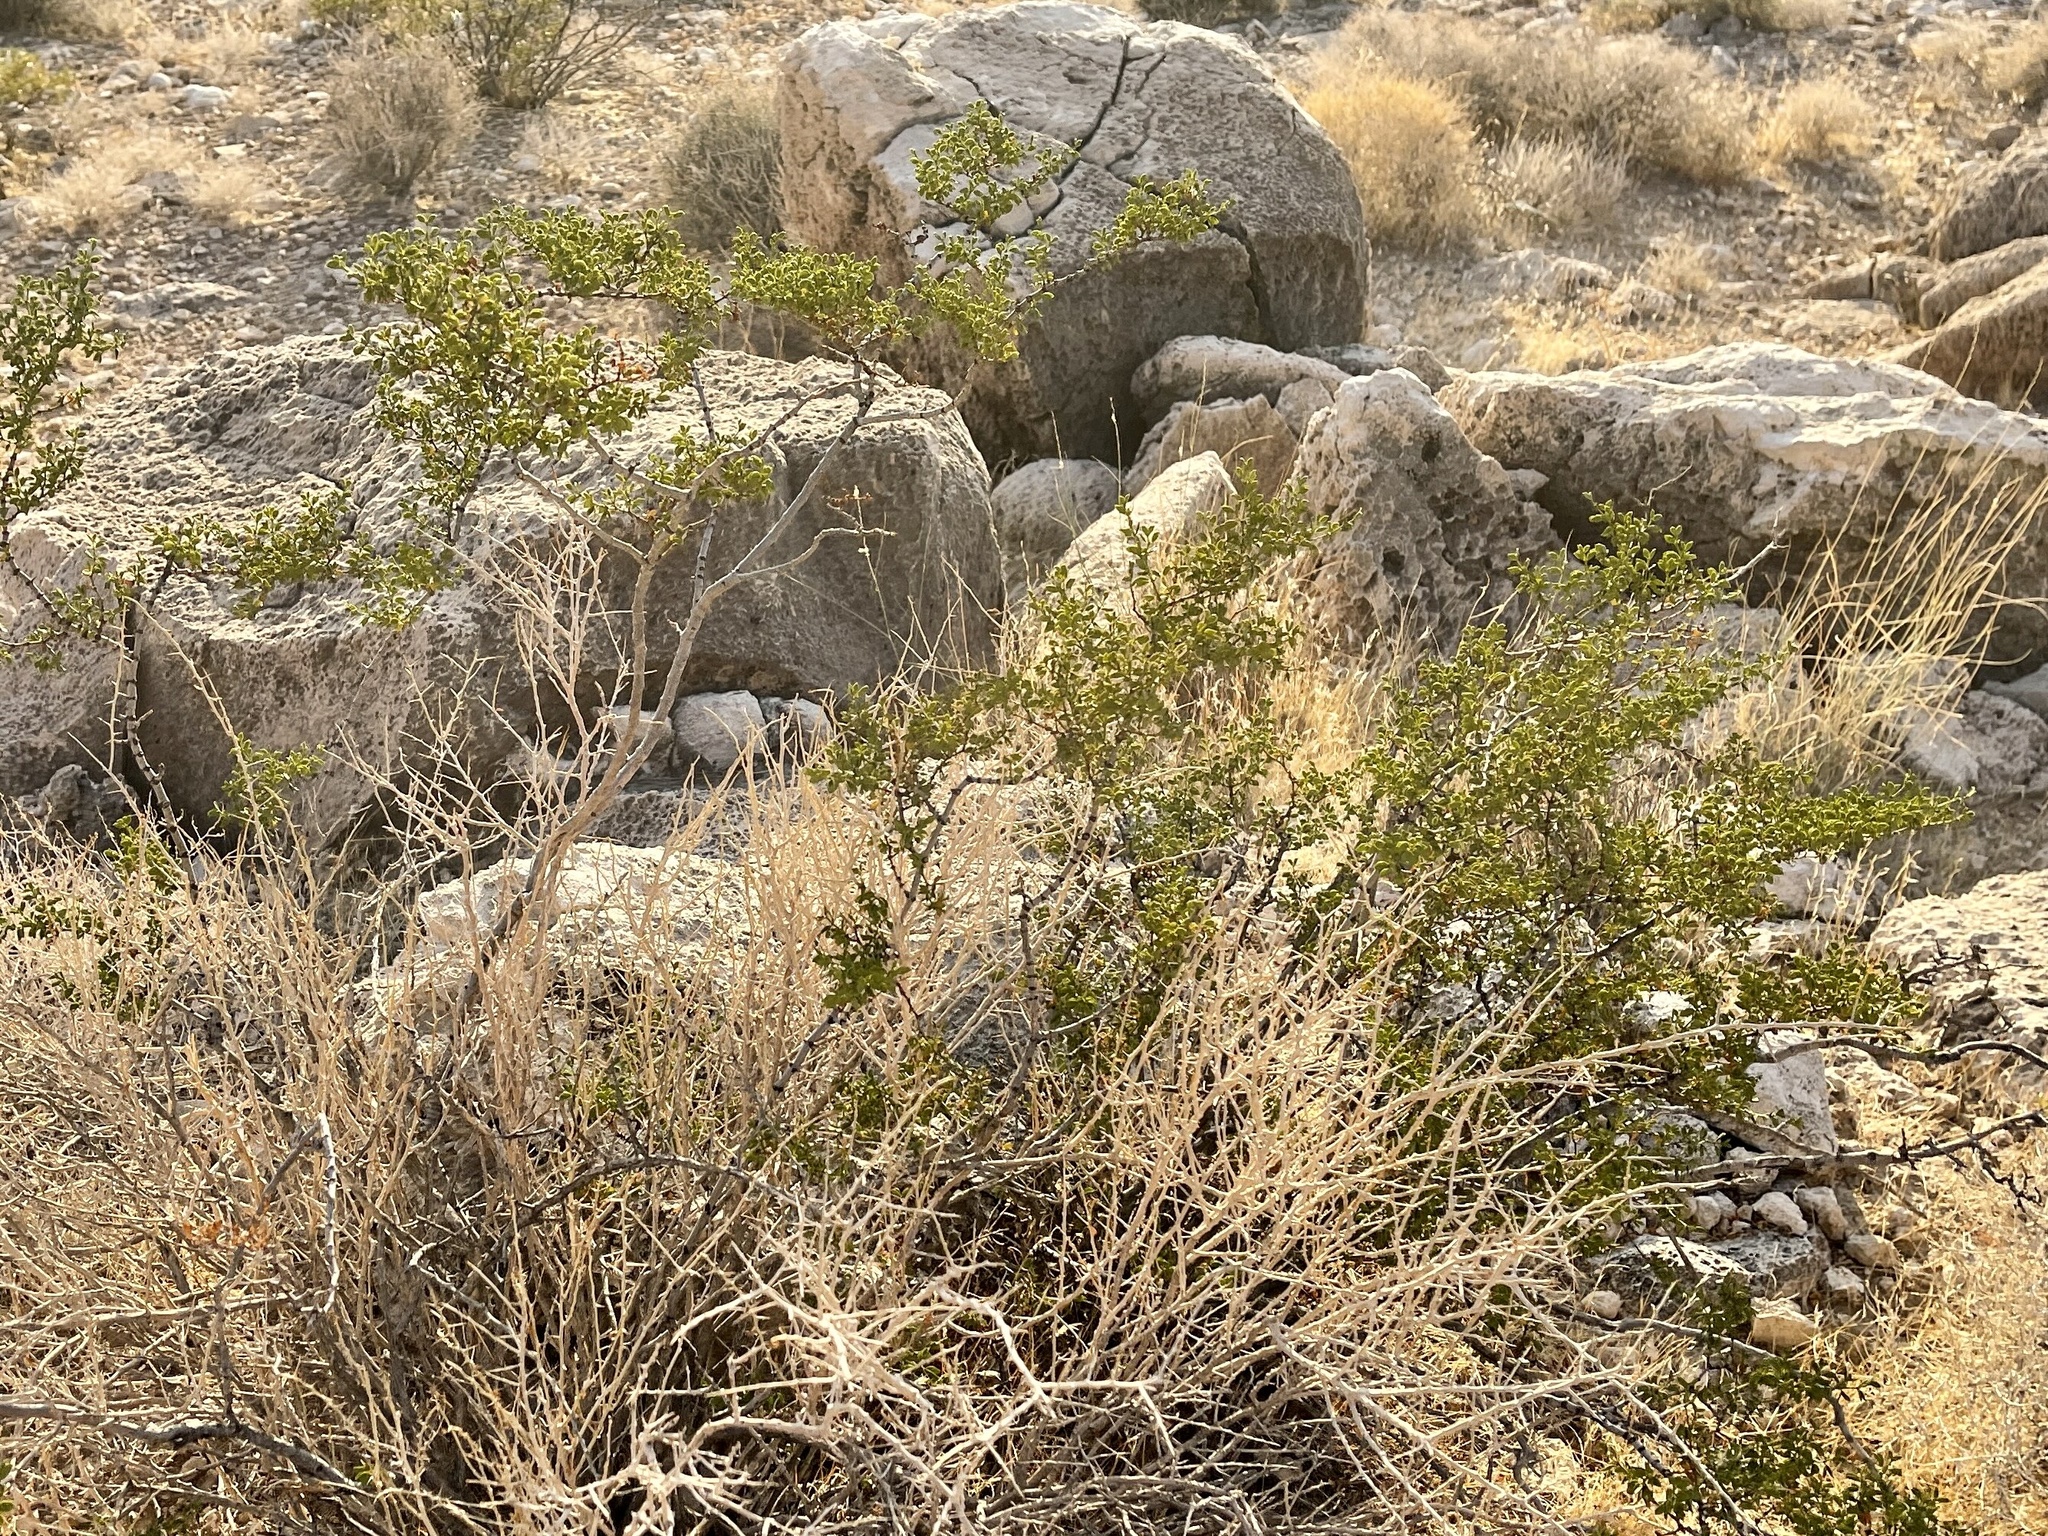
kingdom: Plantae
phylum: Tracheophyta
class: Magnoliopsida
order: Zygophyllales
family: Zygophyllaceae
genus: Larrea
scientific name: Larrea tridentata
